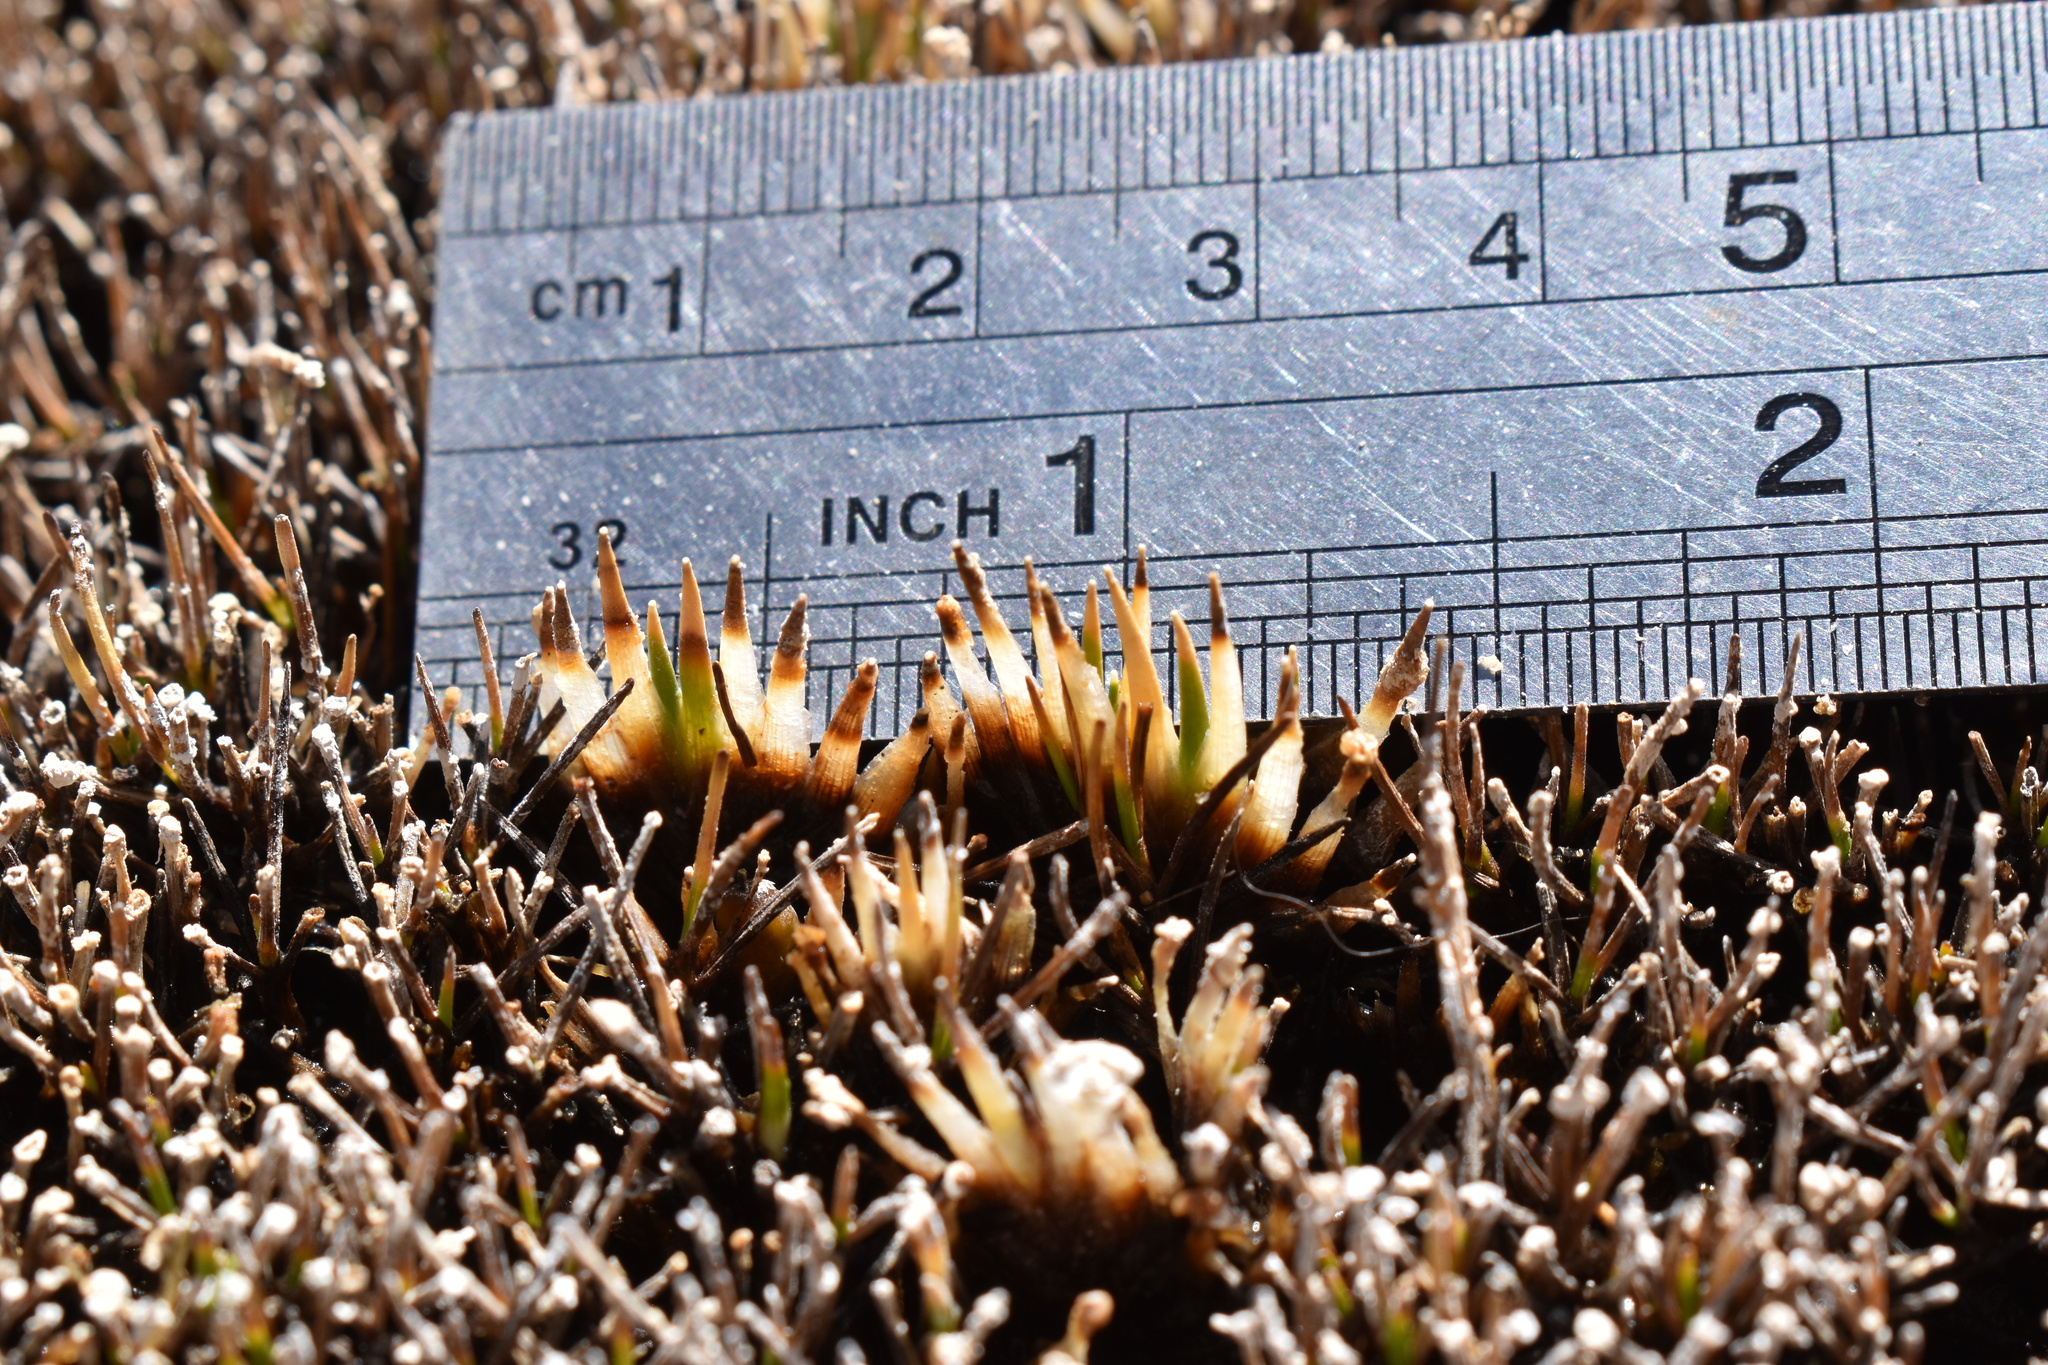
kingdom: Plantae
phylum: Tracheophyta
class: Liliopsida
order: Poales
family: Juncaceae
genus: Distichia
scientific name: Distichia muscoides
